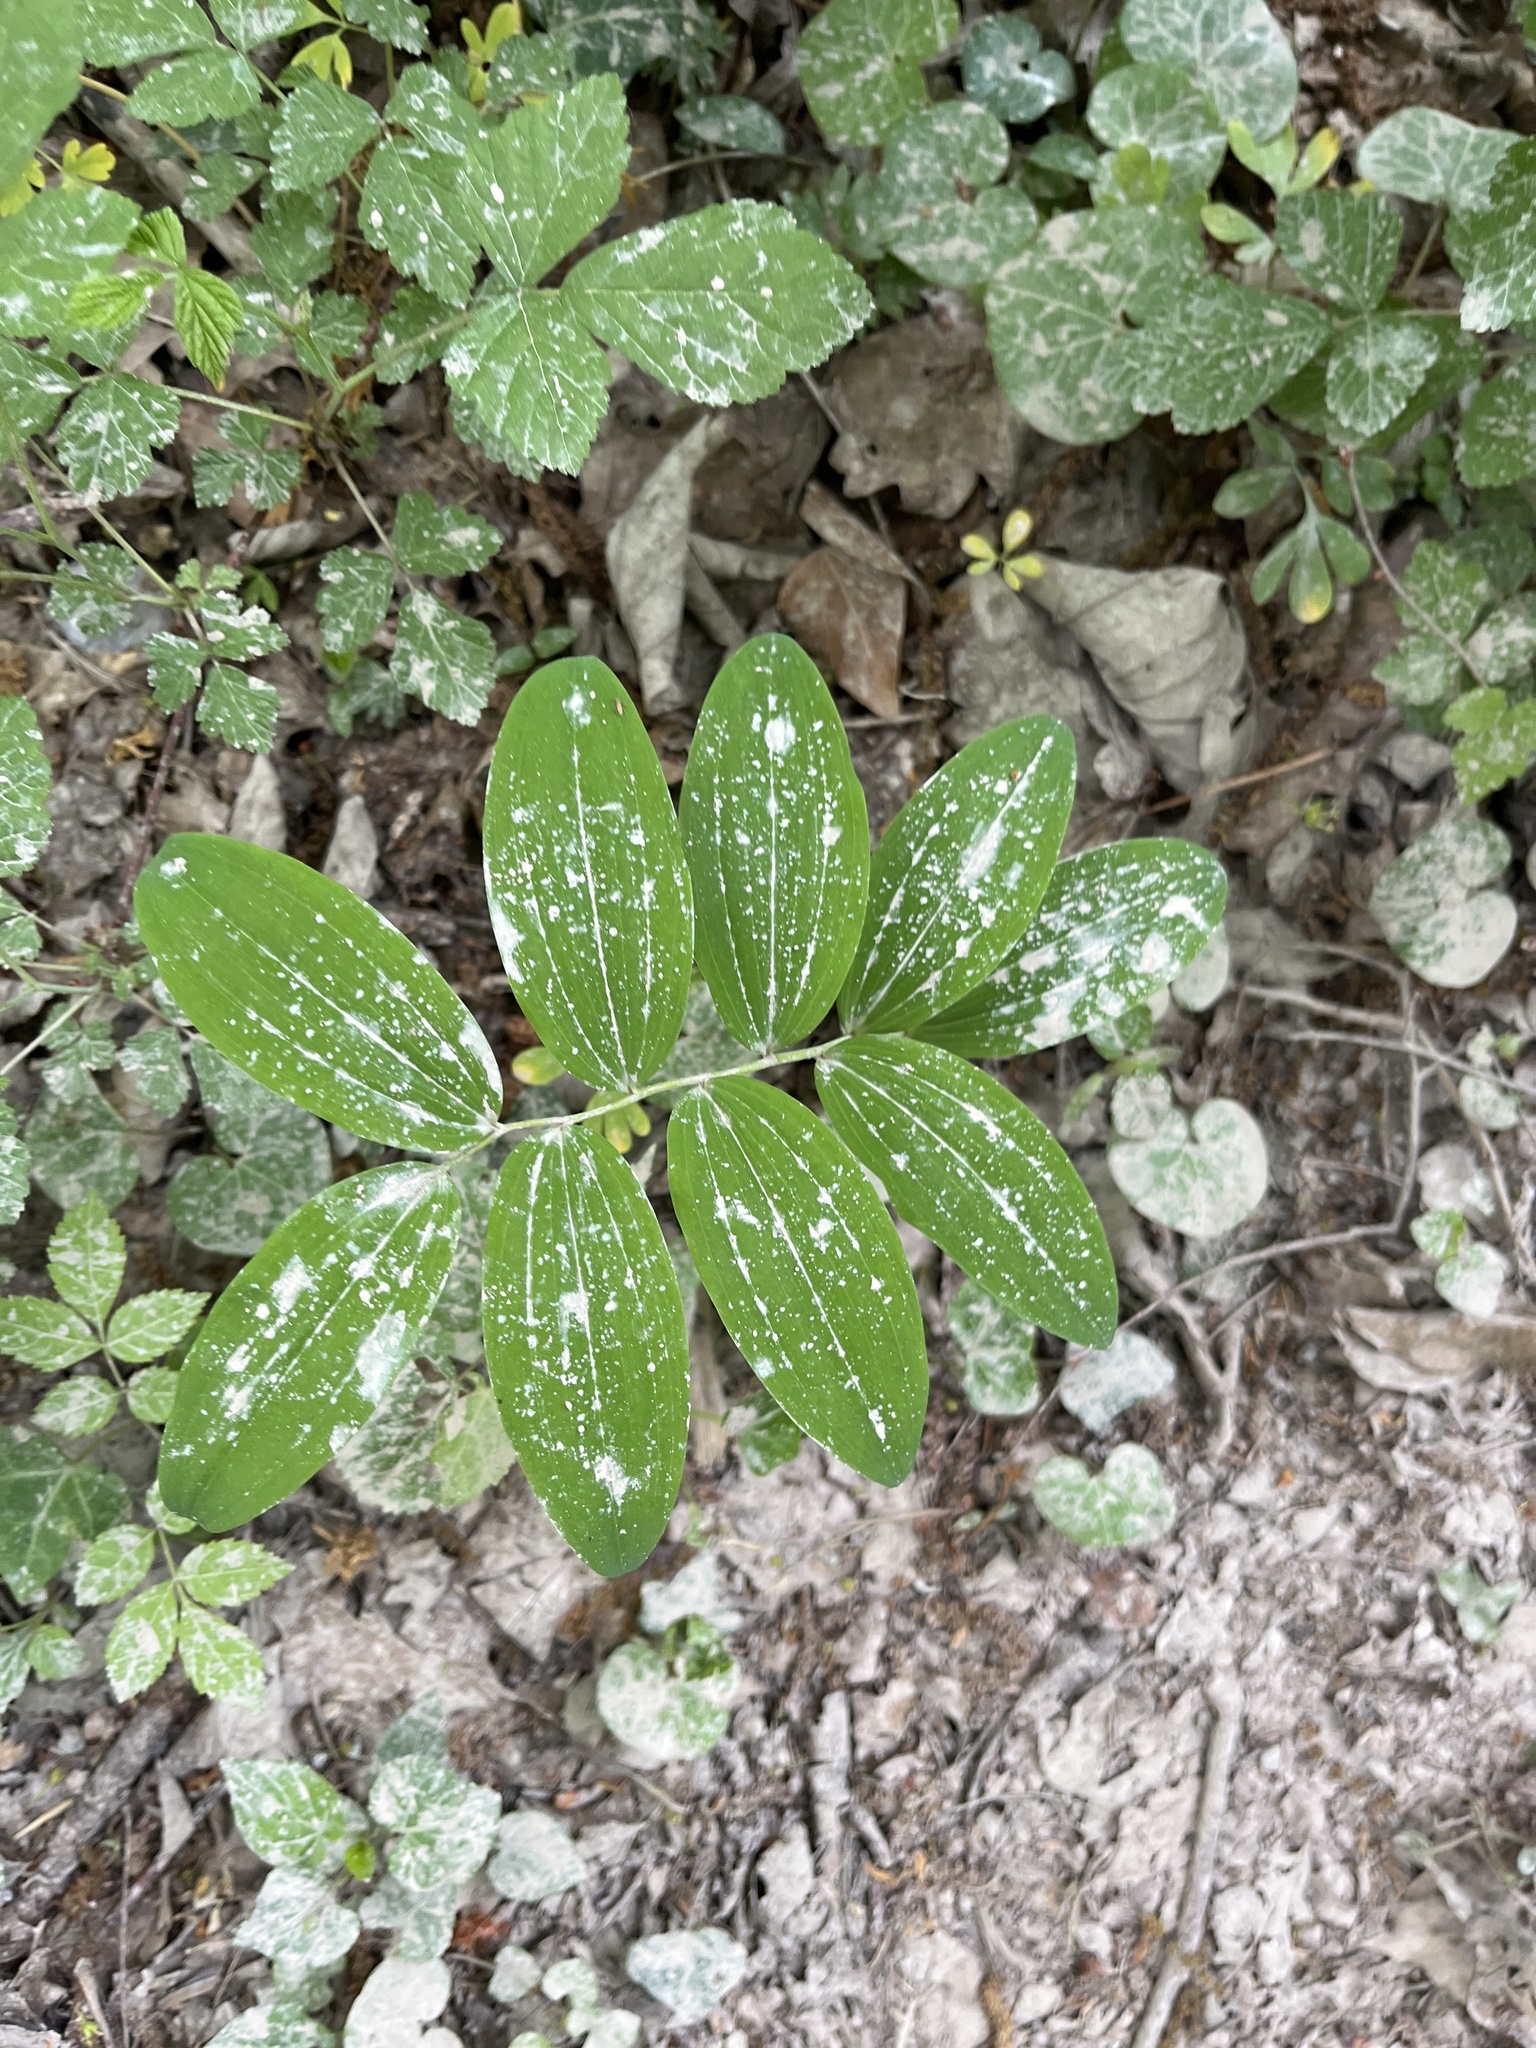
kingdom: Plantae
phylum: Tracheophyta
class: Liliopsida
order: Asparagales
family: Asparagaceae
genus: Polygonatum
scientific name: Polygonatum multiflorum
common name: Solomon's-seal
